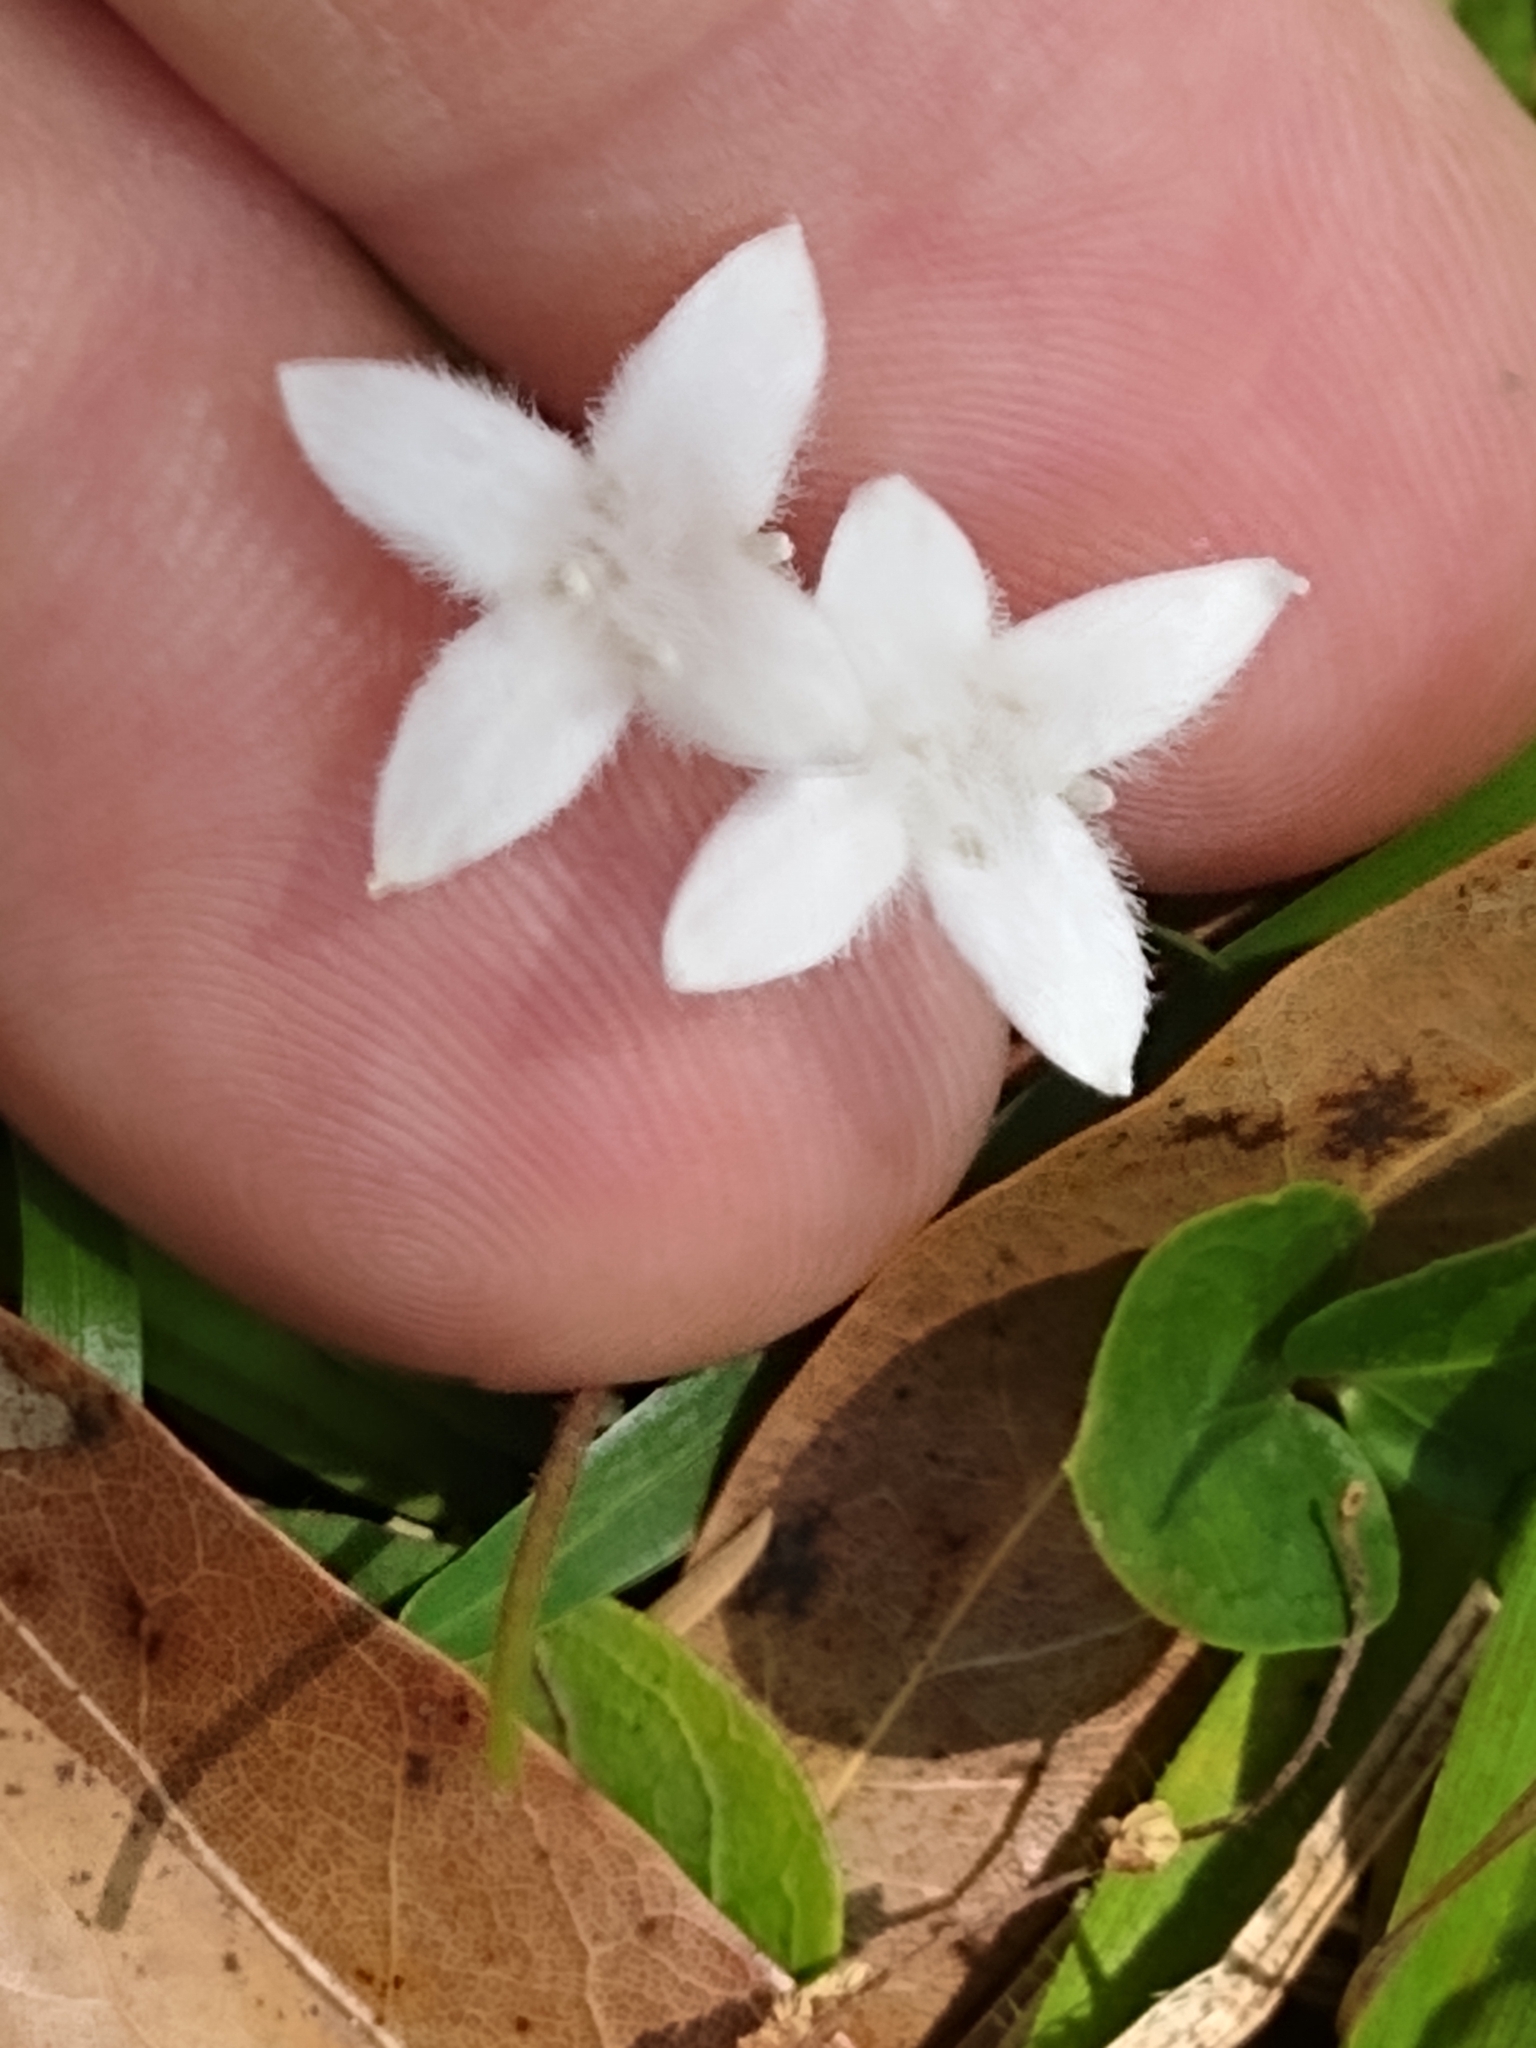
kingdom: Plantae
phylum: Tracheophyta
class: Magnoliopsida
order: Gentianales
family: Rubiaceae
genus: Mitchella
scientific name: Mitchella repens
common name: Partridge-berry
